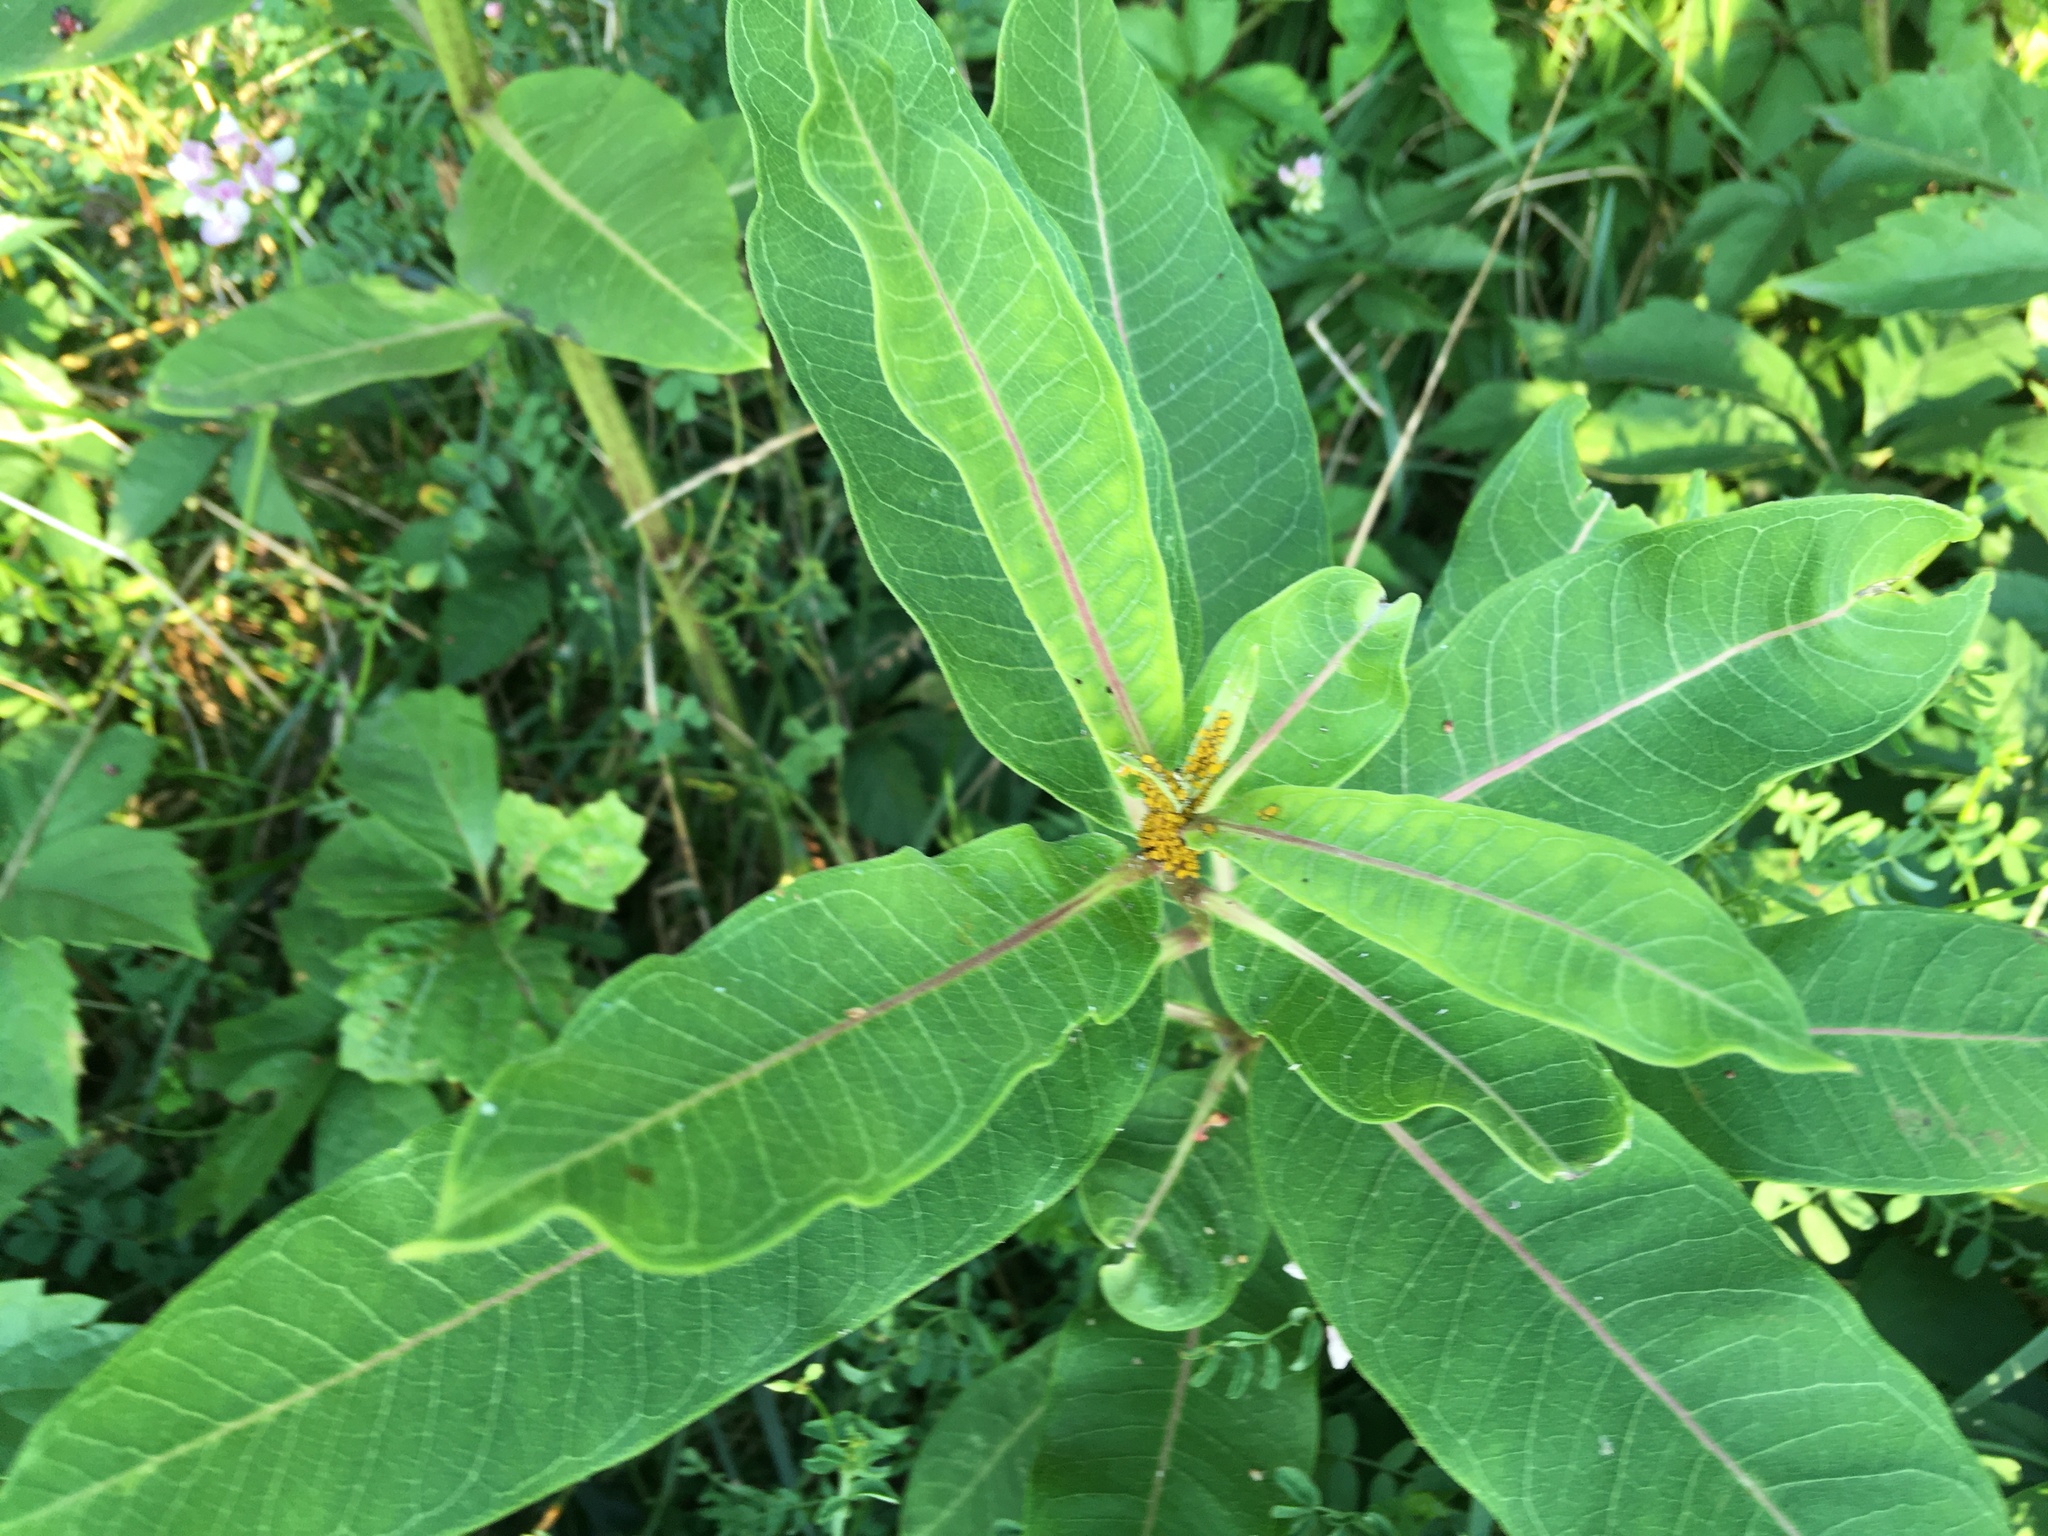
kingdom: Plantae
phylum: Tracheophyta
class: Magnoliopsida
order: Gentianales
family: Apocynaceae
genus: Asclepias
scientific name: Asclepias syriaca
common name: Common milkweed
